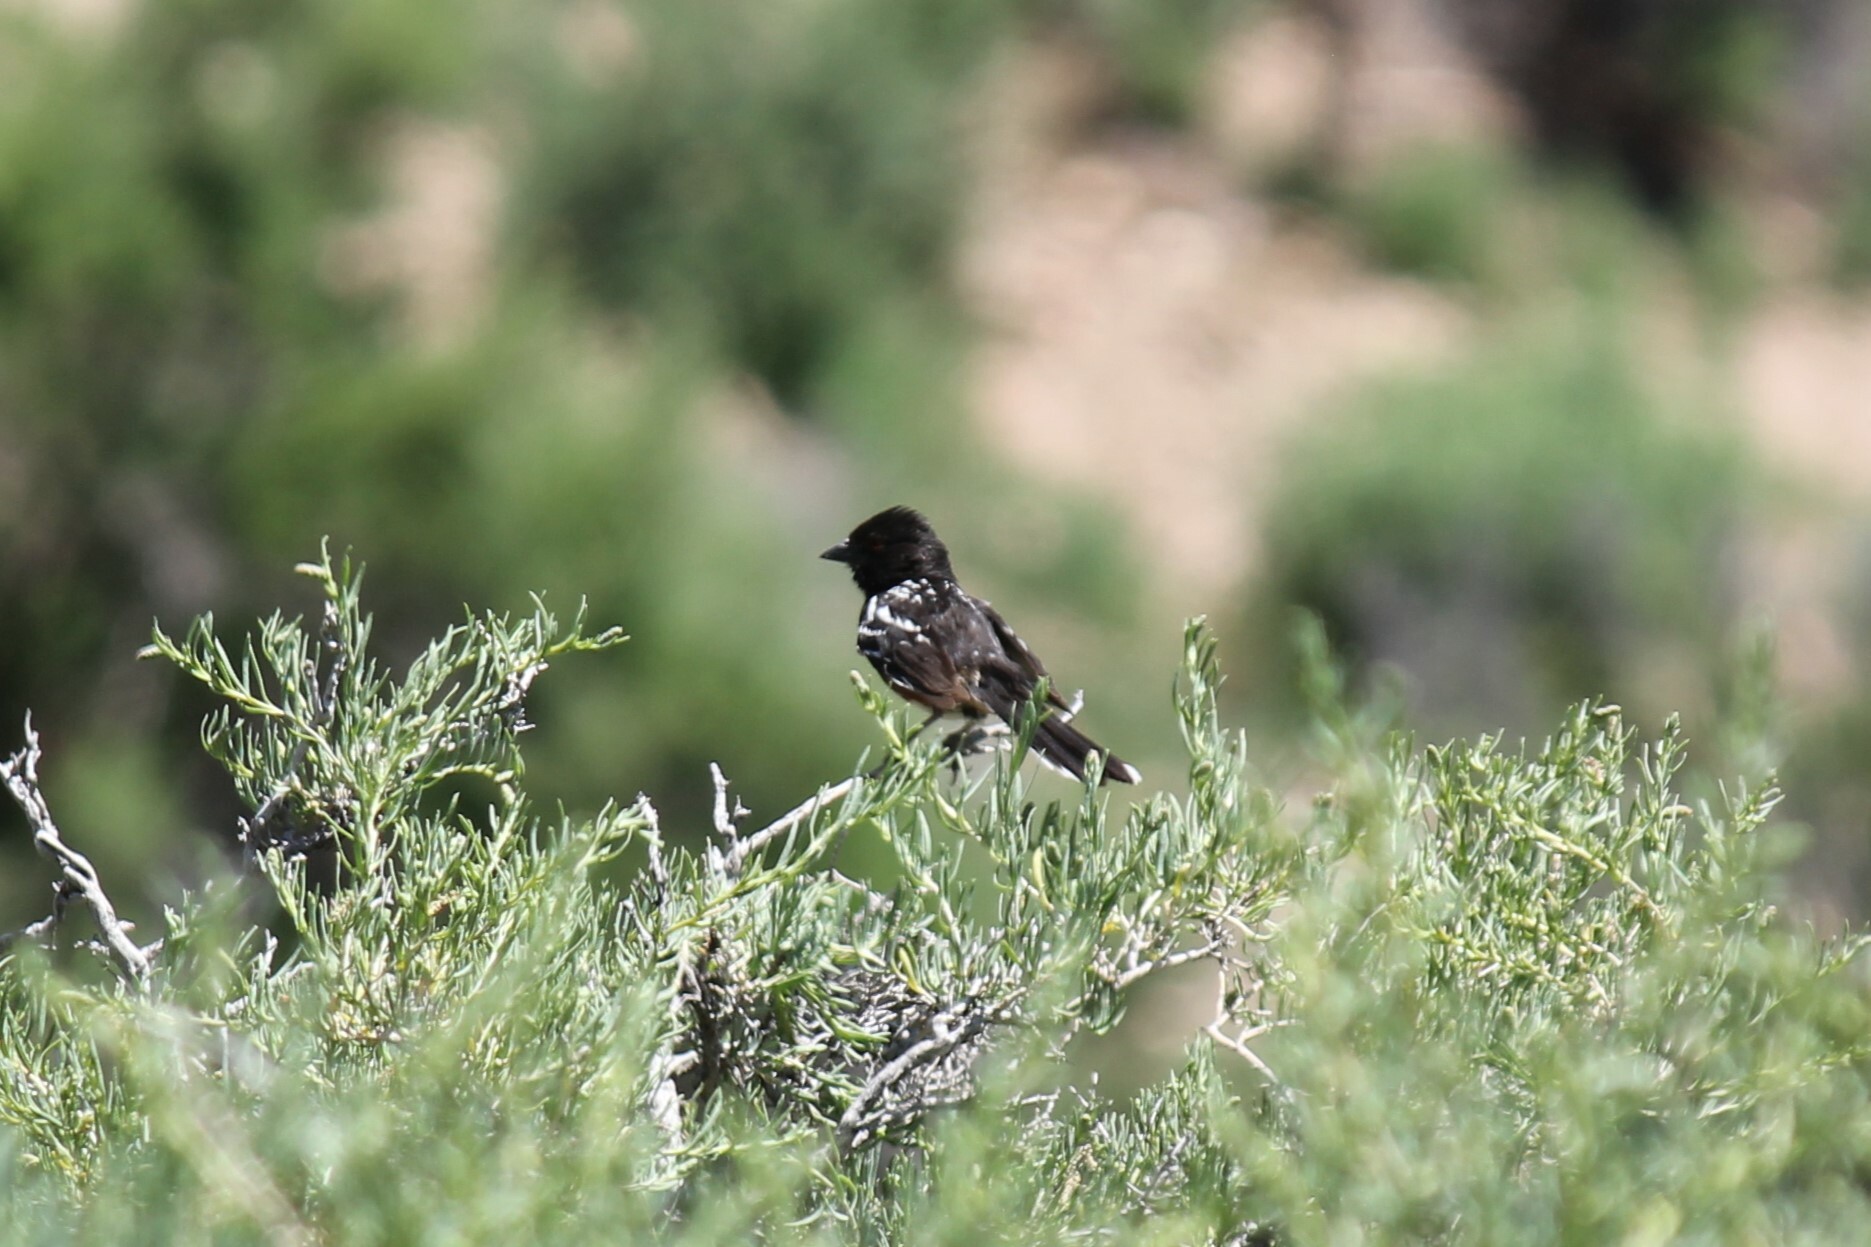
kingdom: Animalia
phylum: Chordata
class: Aves
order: Passeriformes
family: Passerellidae
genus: Pipilo
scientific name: Pipilo maculatus
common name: Spotted towhee
